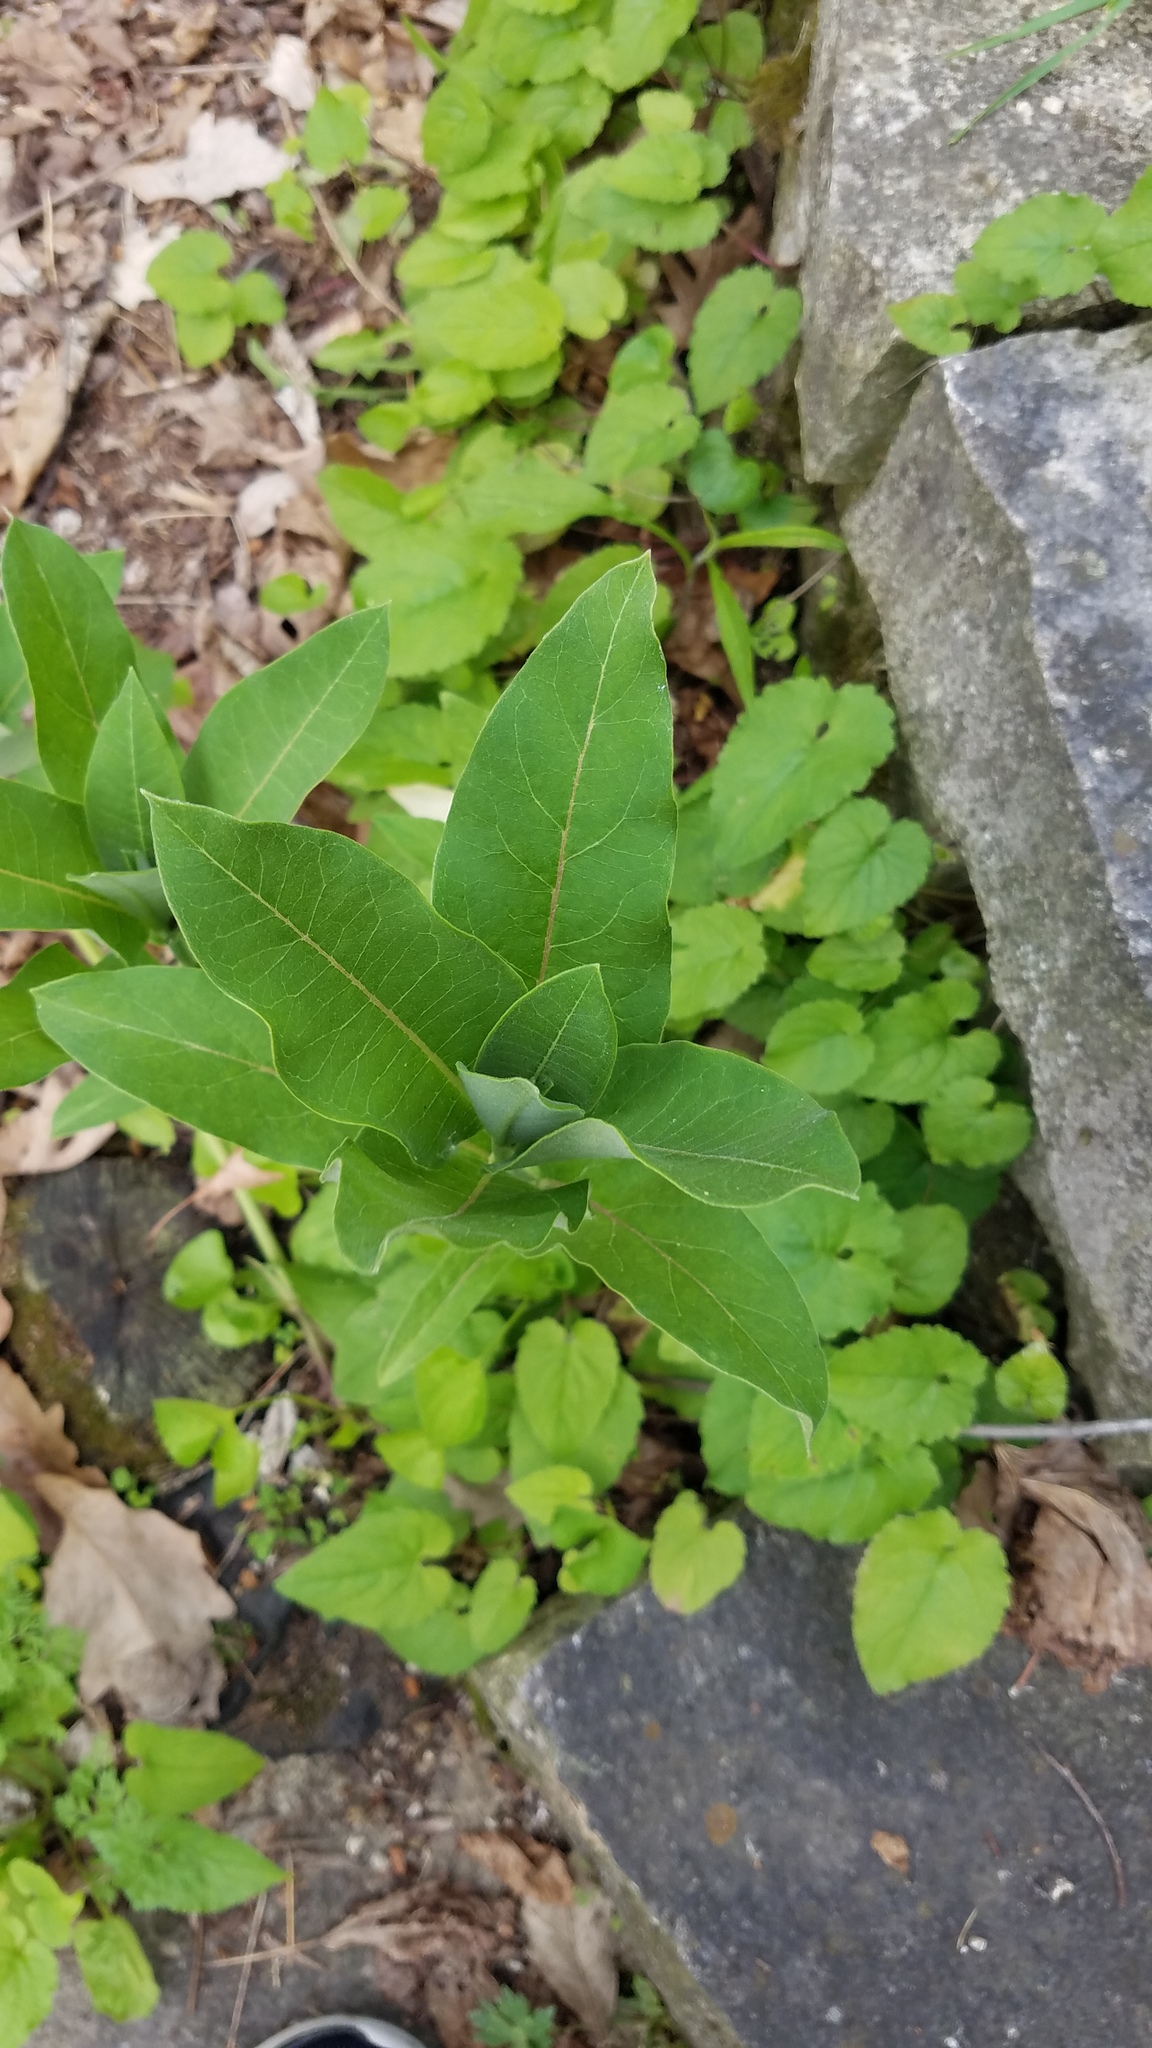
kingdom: Plantae
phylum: Tracheophyta
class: Magnoliopsida
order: Gentianales
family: Apocynaceae
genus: Asclepias
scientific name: Asclepias syriaca
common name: Common milkweed
